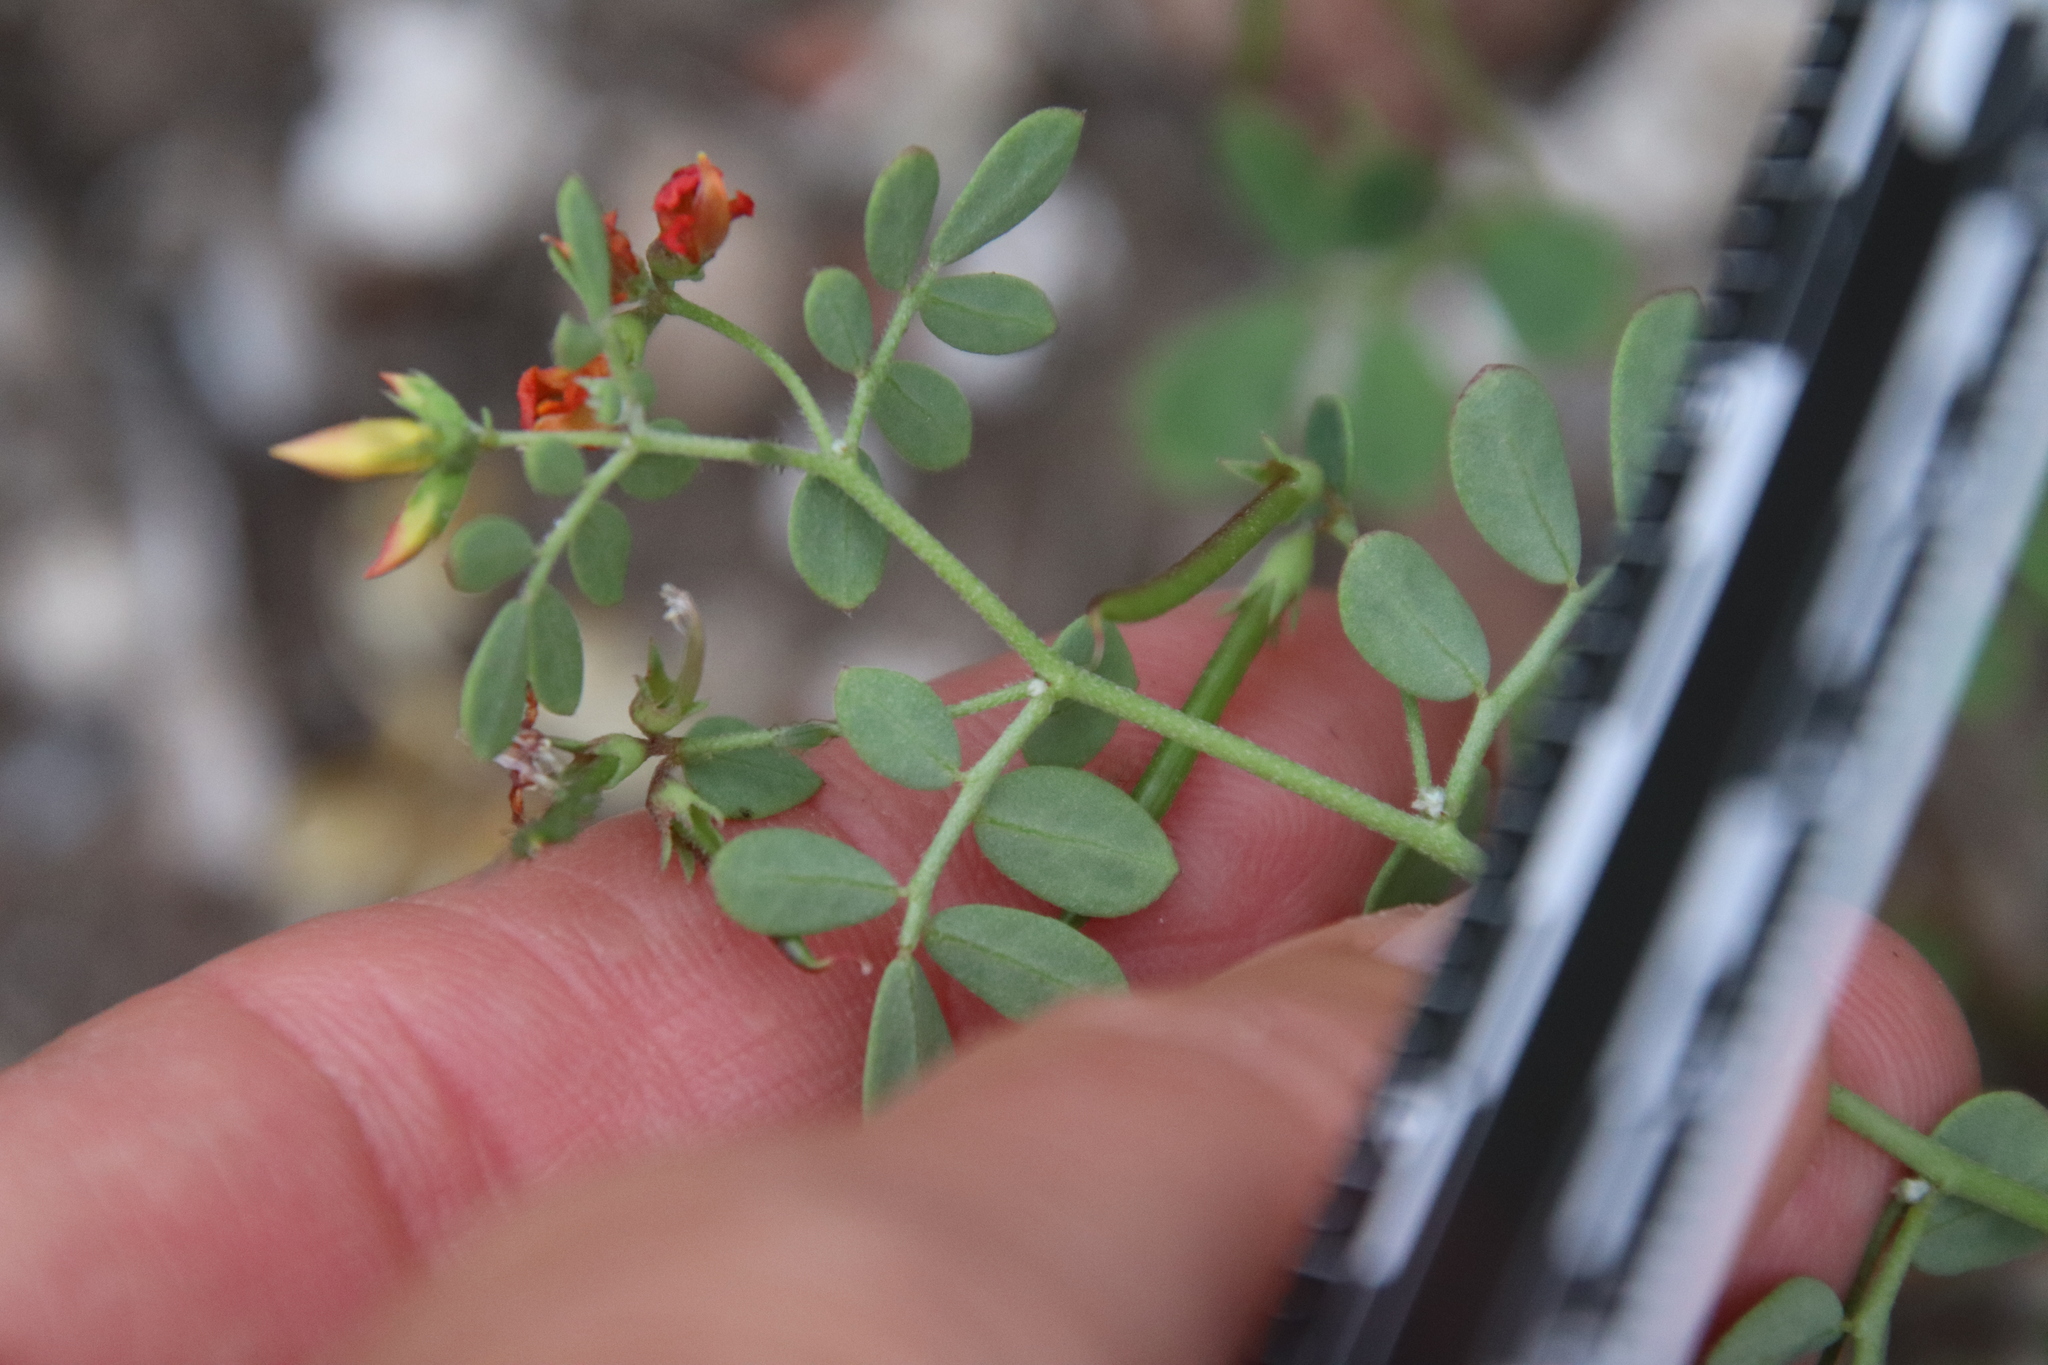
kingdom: Plantae
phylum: Tracheophyta
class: Magnoliopsida
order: Fabales
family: Fabaceae
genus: Acmispon
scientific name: Acmispon maritimus
